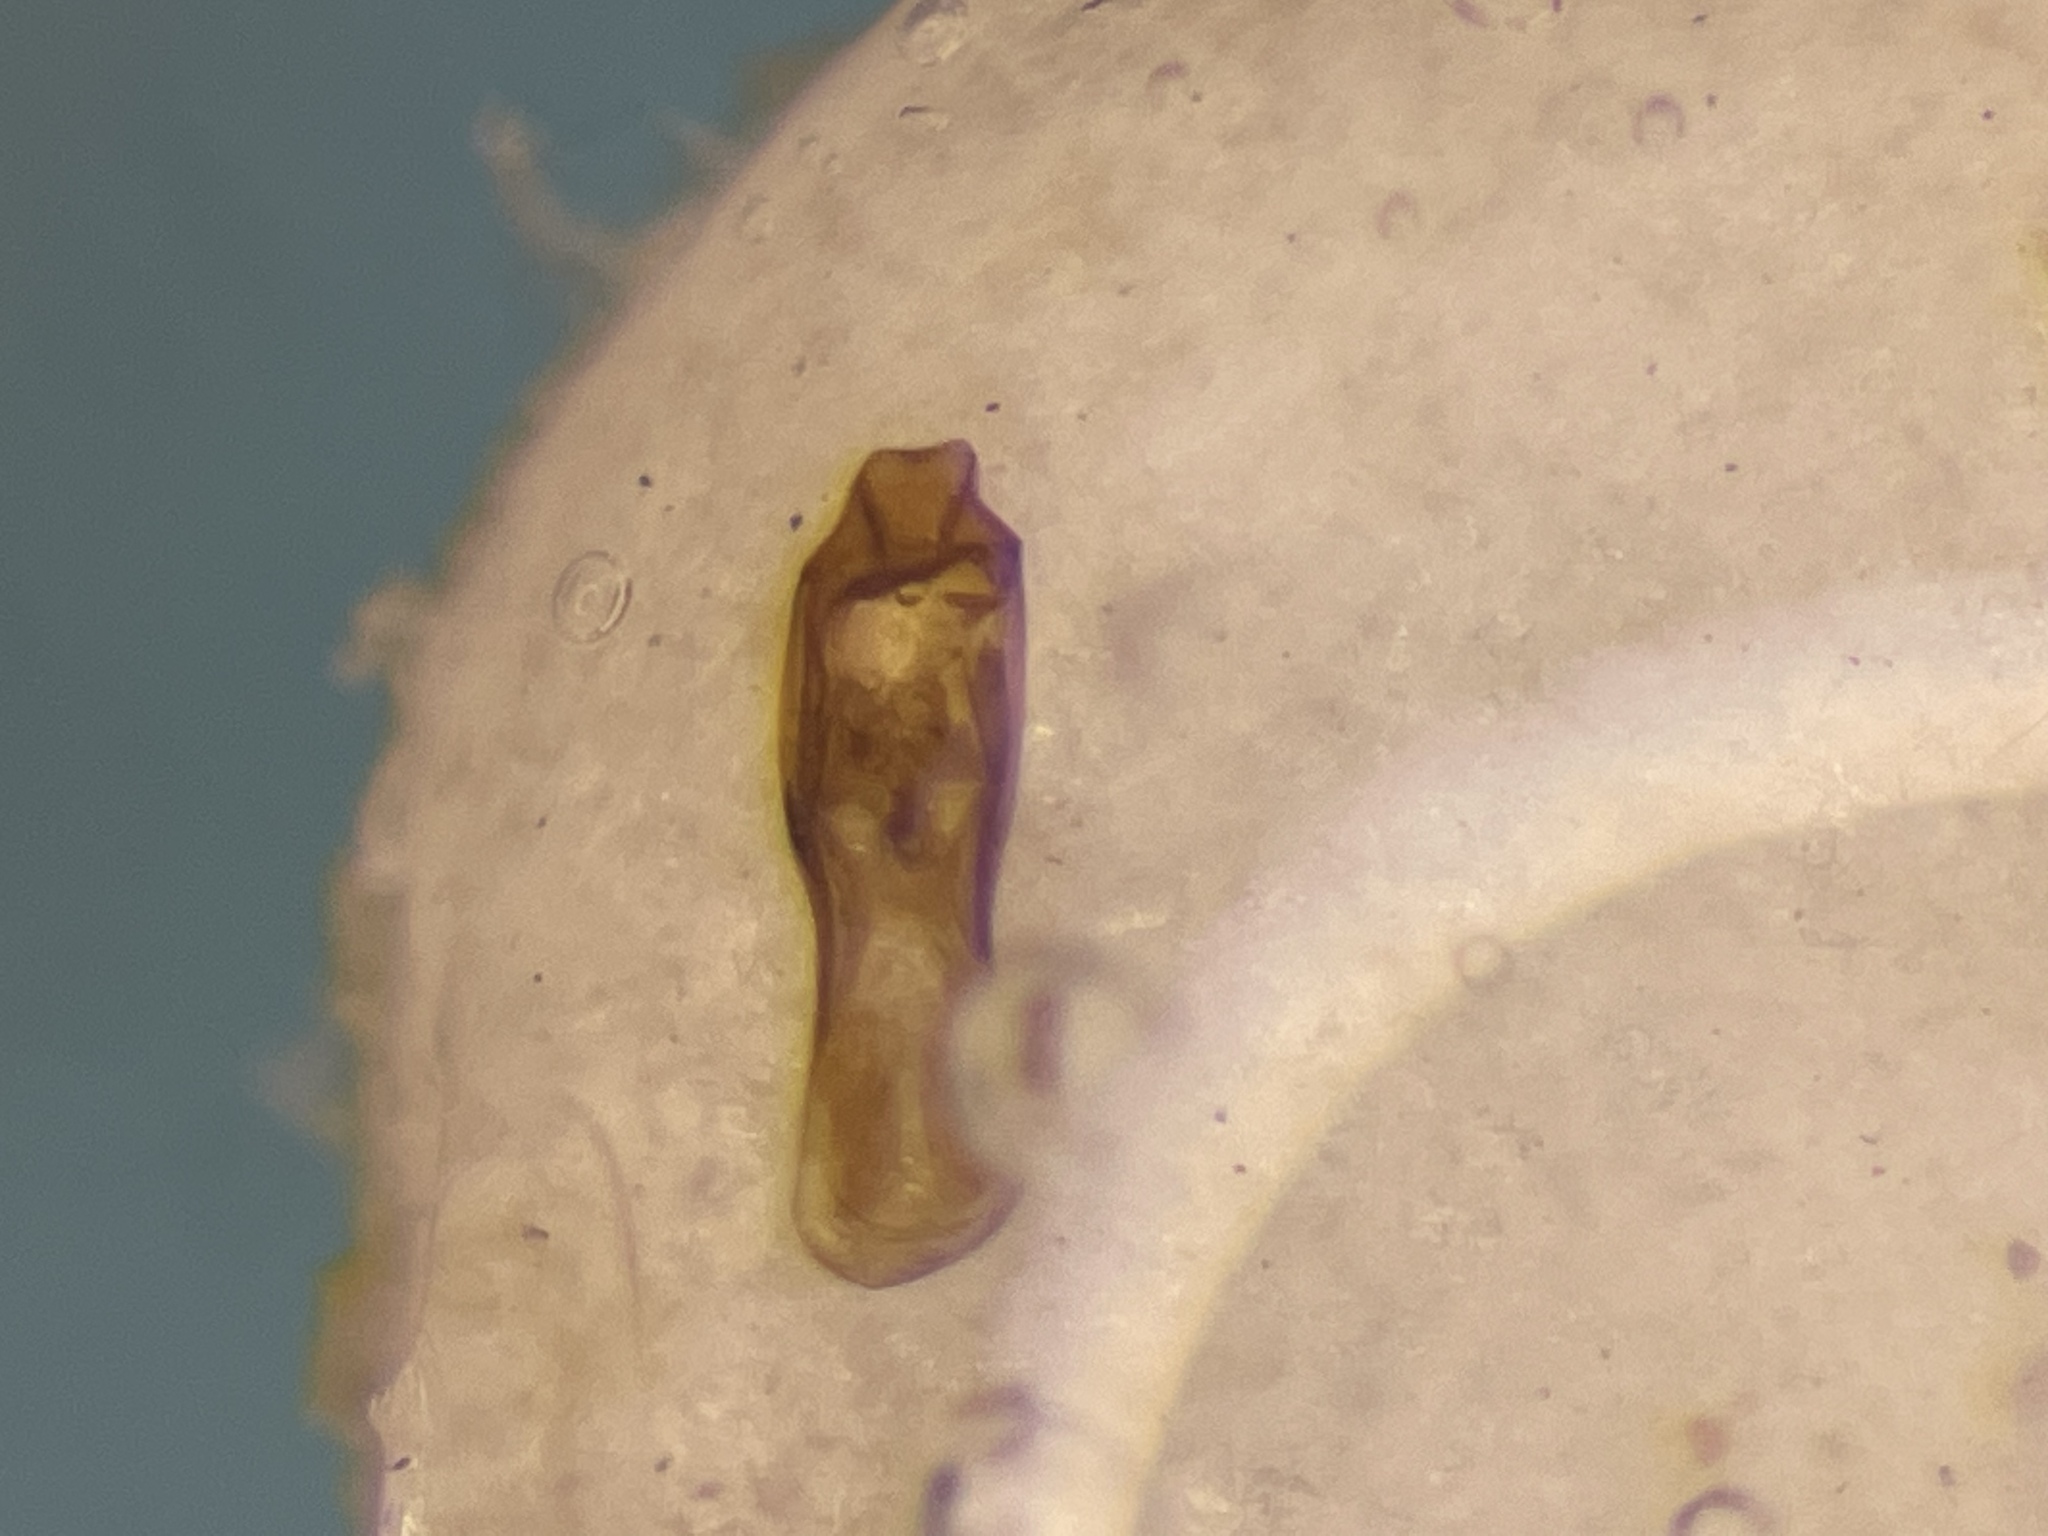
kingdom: Animalia
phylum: Arthropoda
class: Insecta
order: Coleoptera
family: Staphylinidae
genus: Gabrius
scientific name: Gabrius appendiculatus
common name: Staph beetle
